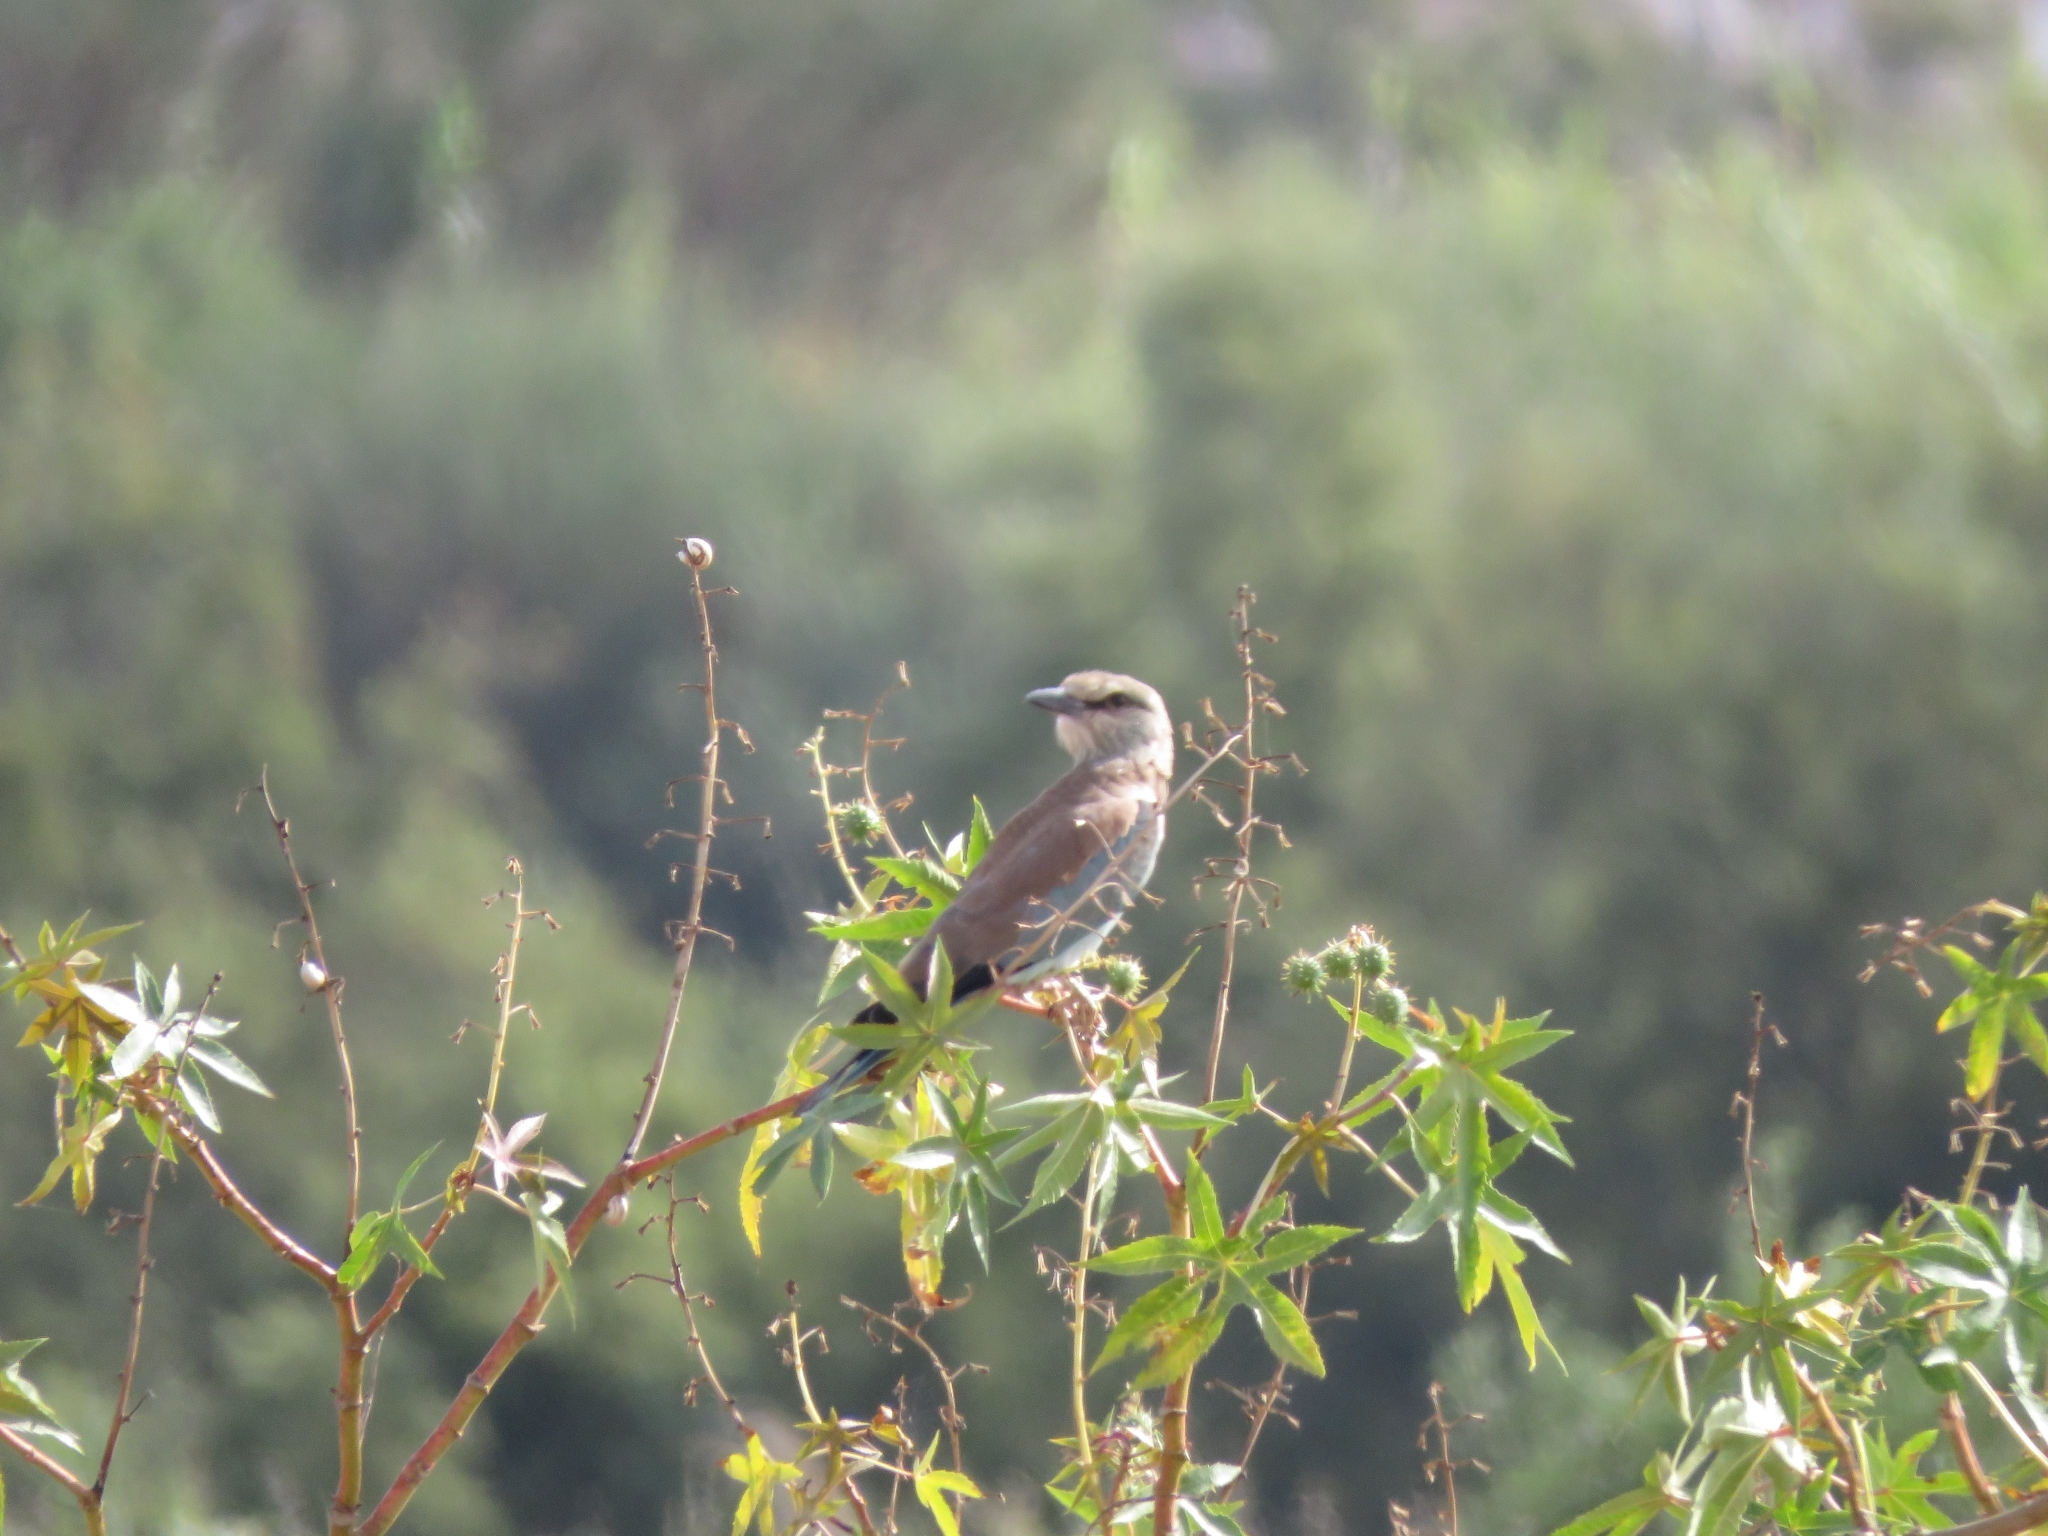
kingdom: Animalia
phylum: Chordata
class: Aves
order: Coraciiformes
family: Coraciidae
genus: Coracias
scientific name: Coracias garrulus
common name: European roller
